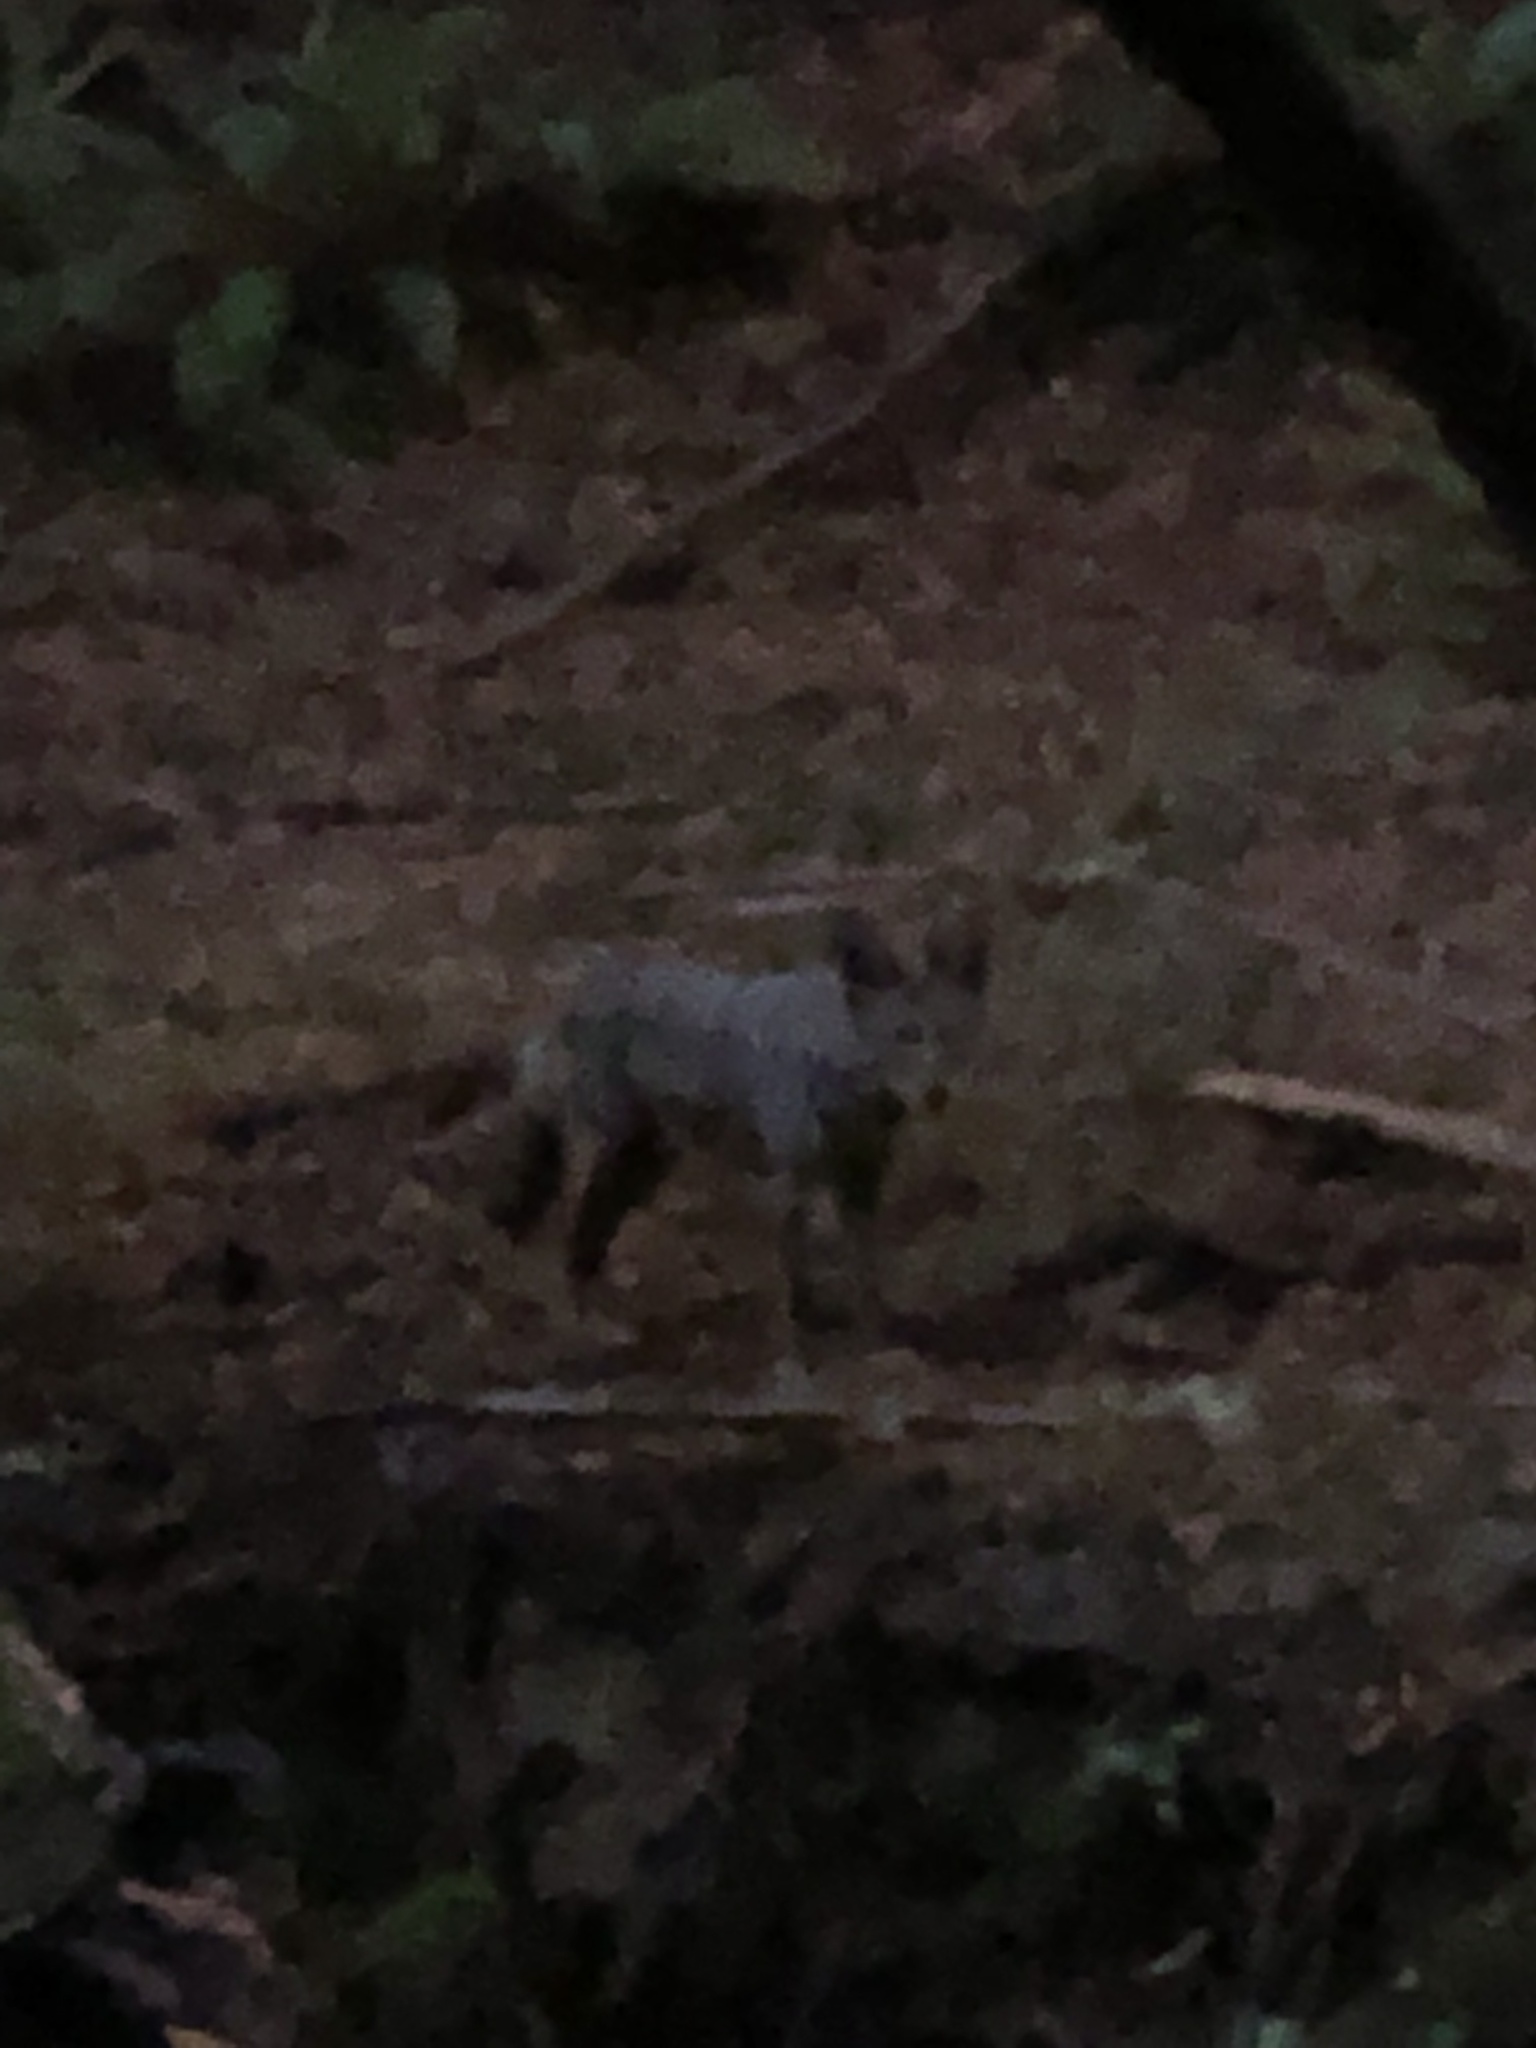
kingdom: Animalia
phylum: Chordata
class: Mammalia
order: Carnivora
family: Canidae
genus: Canis
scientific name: Canis latrans
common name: Coyote
